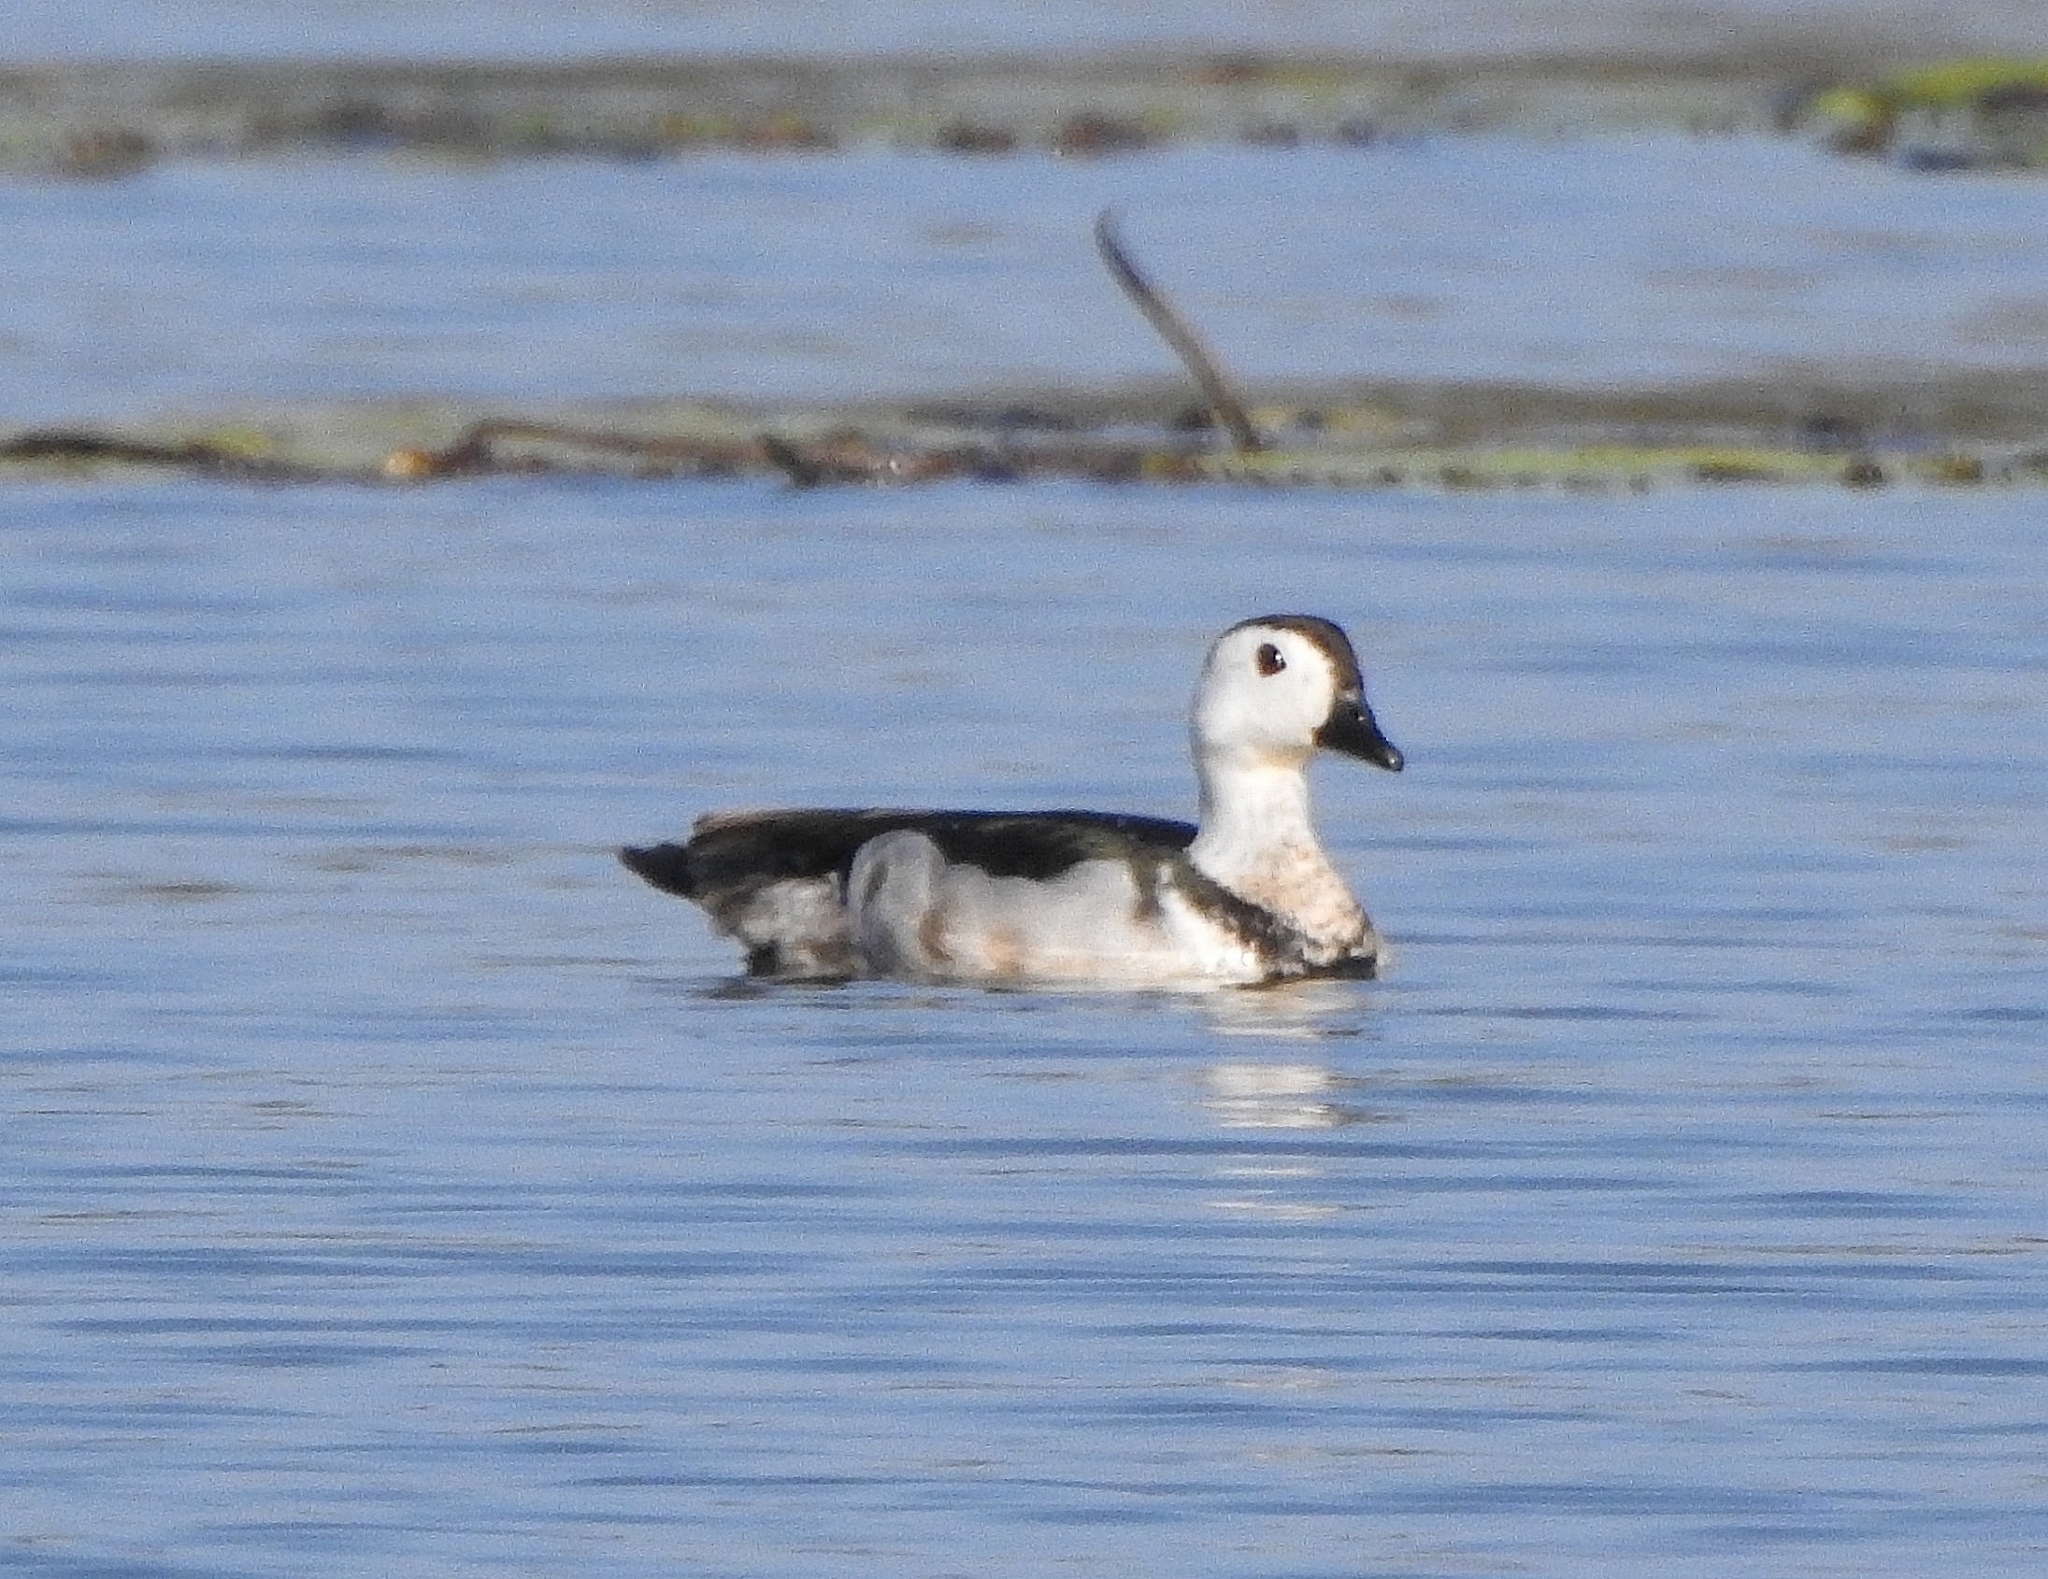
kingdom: Animalia
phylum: Chordata
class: Aves
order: Anseriformes
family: Anatidae
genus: Nettapus
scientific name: Nettapus coromandelianus
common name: Cotton pygmy-goose
